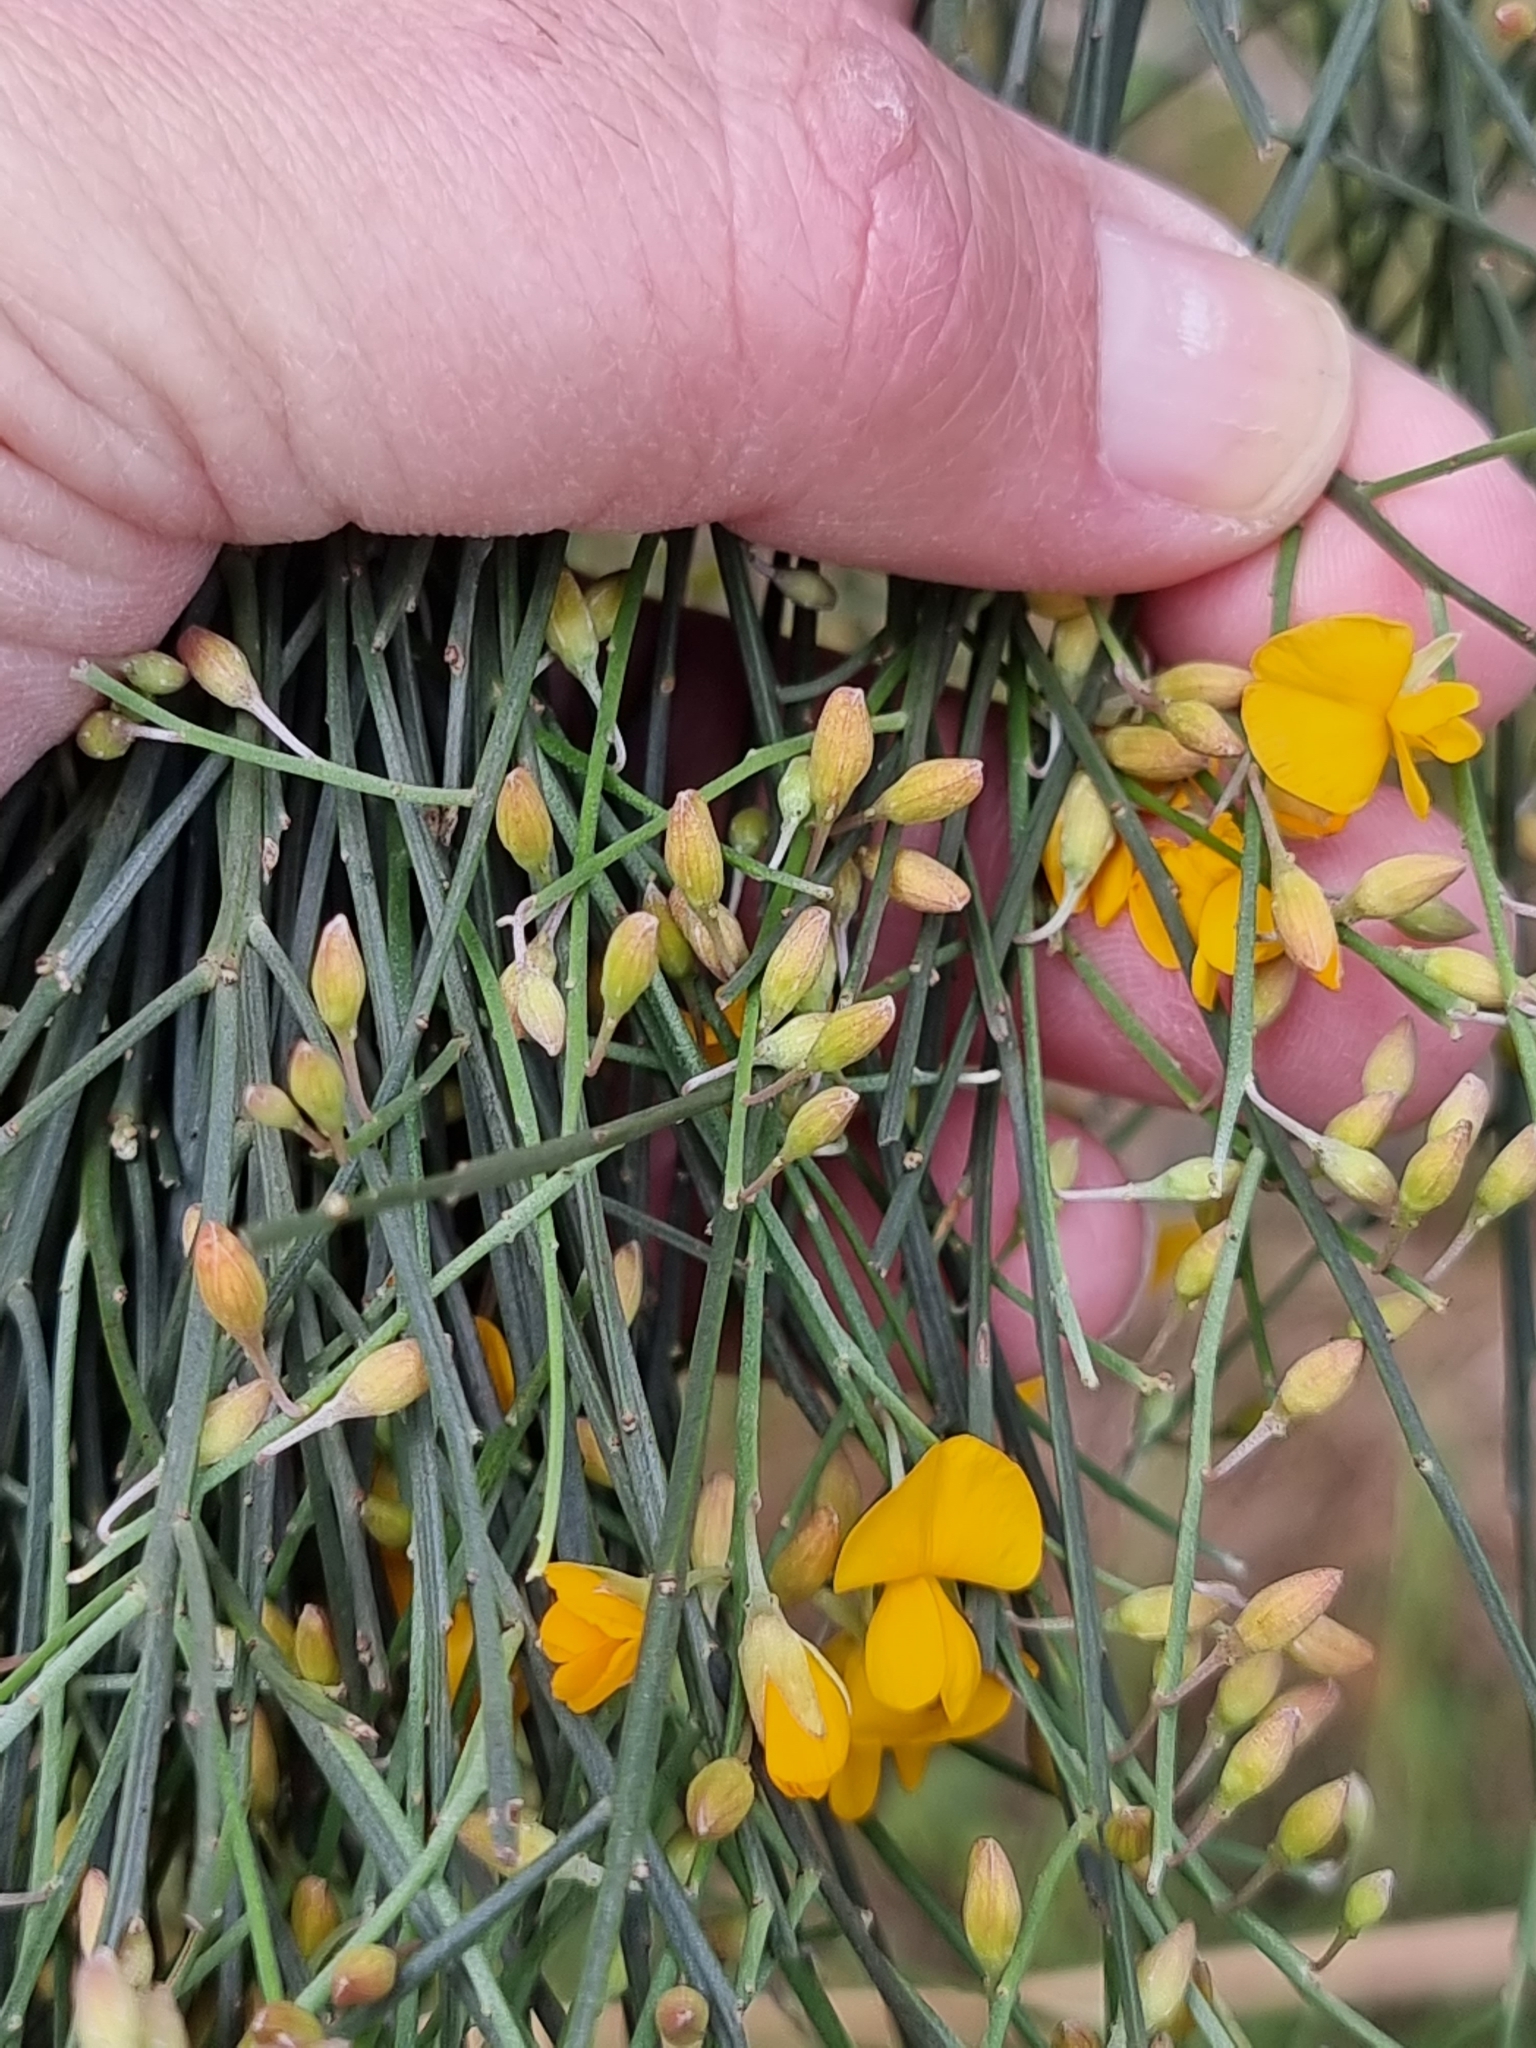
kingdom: Plantae
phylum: Tracheophyta
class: Magnoliopsida
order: Fabales
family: Fabaceae
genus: Jacksonia
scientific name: Jacksonia scoparia
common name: Dogwood
